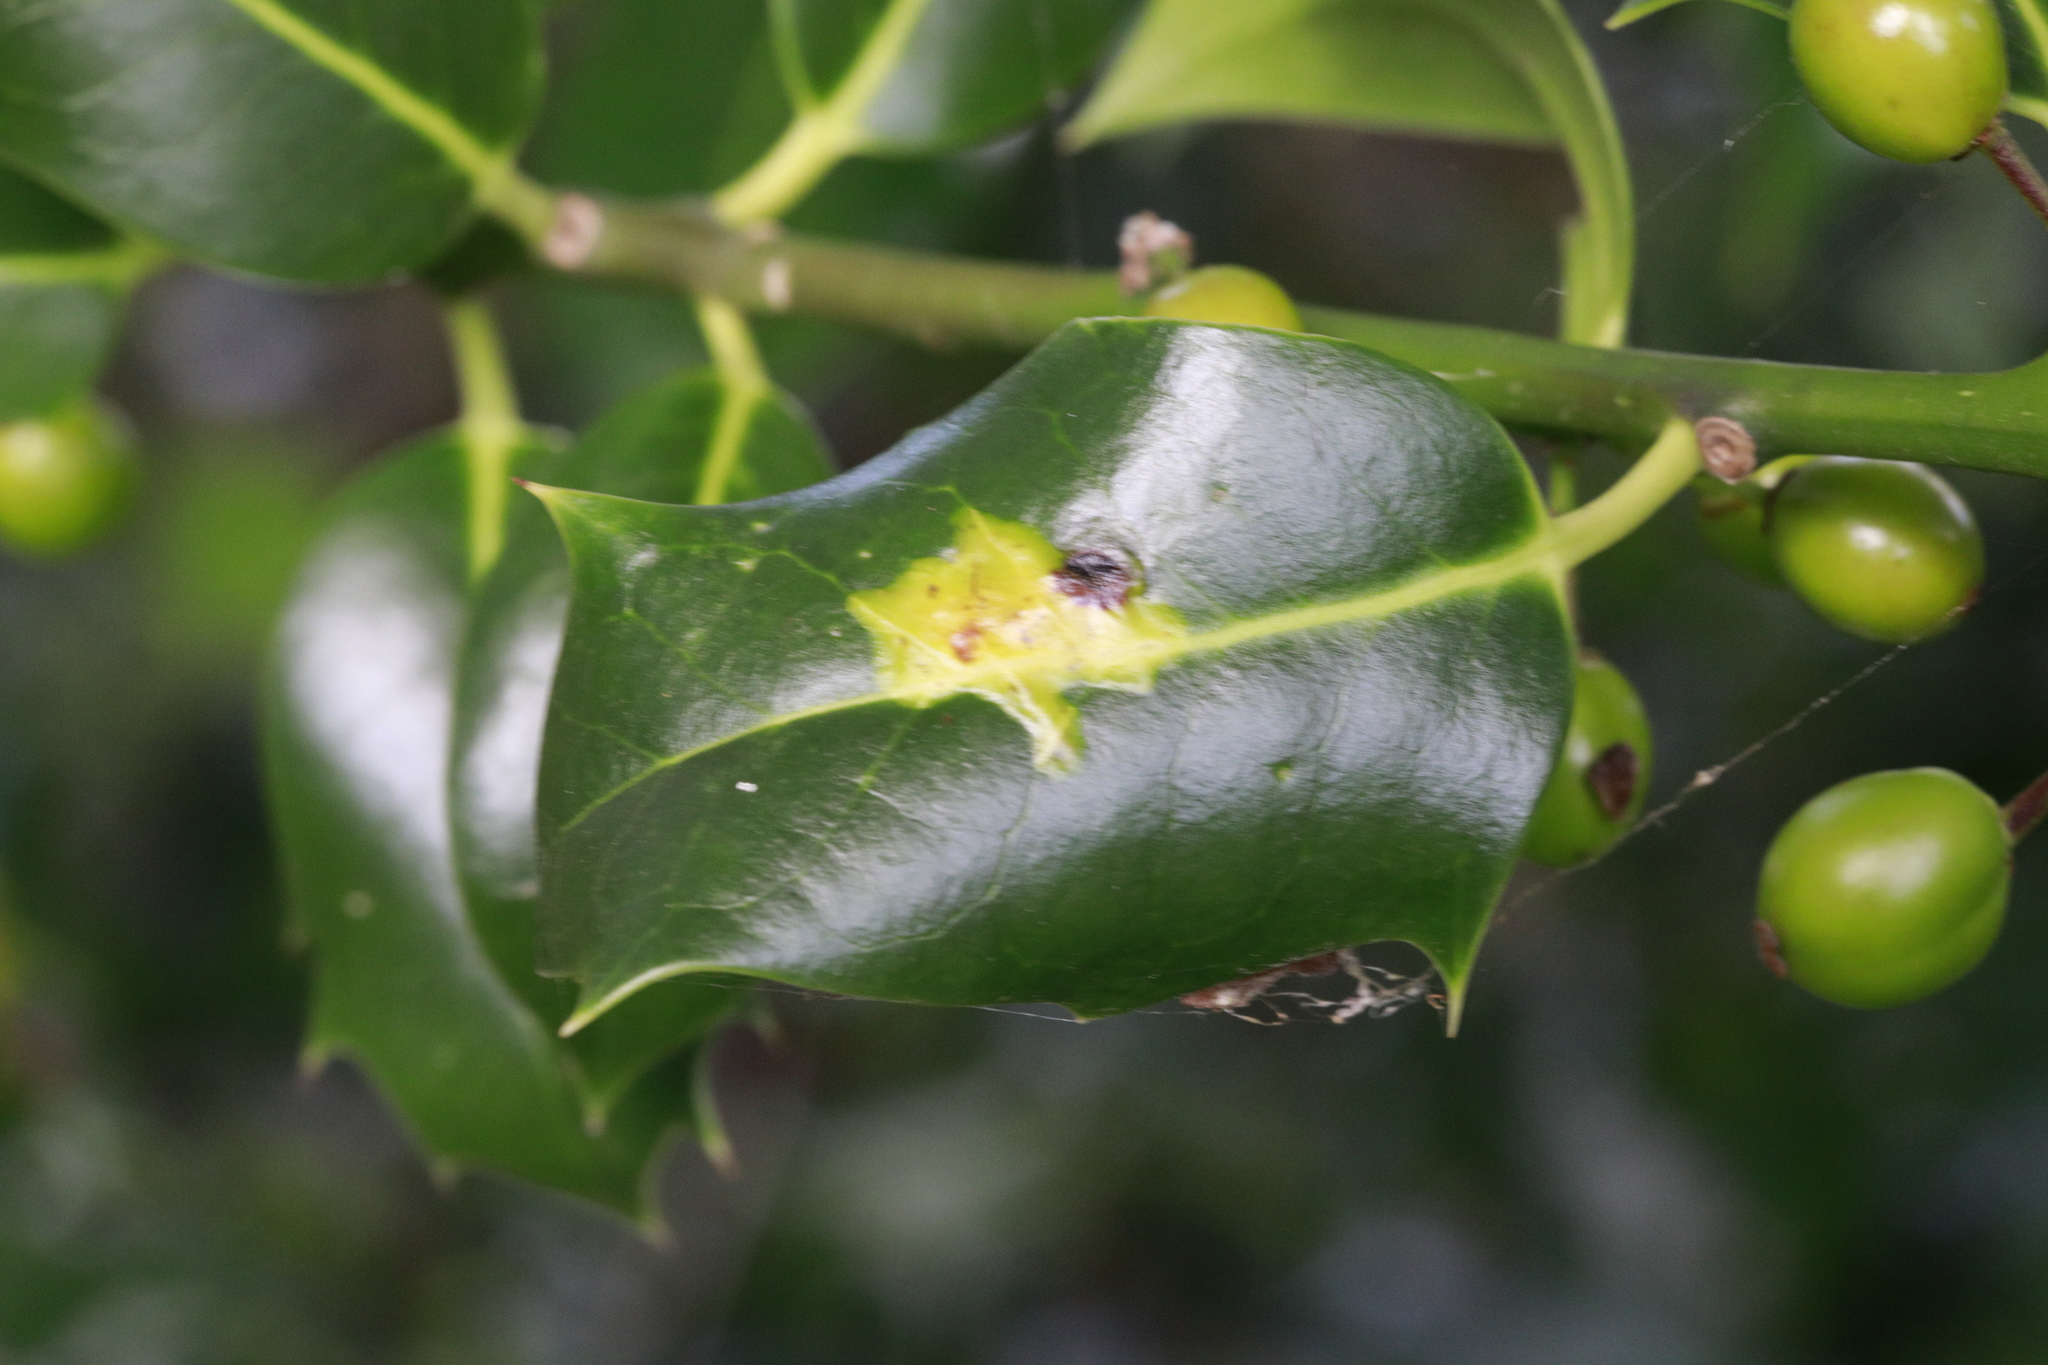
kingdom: Animalia
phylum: Arthropoda
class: Insecta
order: Diptera
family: Agromyzidae
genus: Phytomyza
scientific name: Phytomyza ilicis
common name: Holly leafminer
